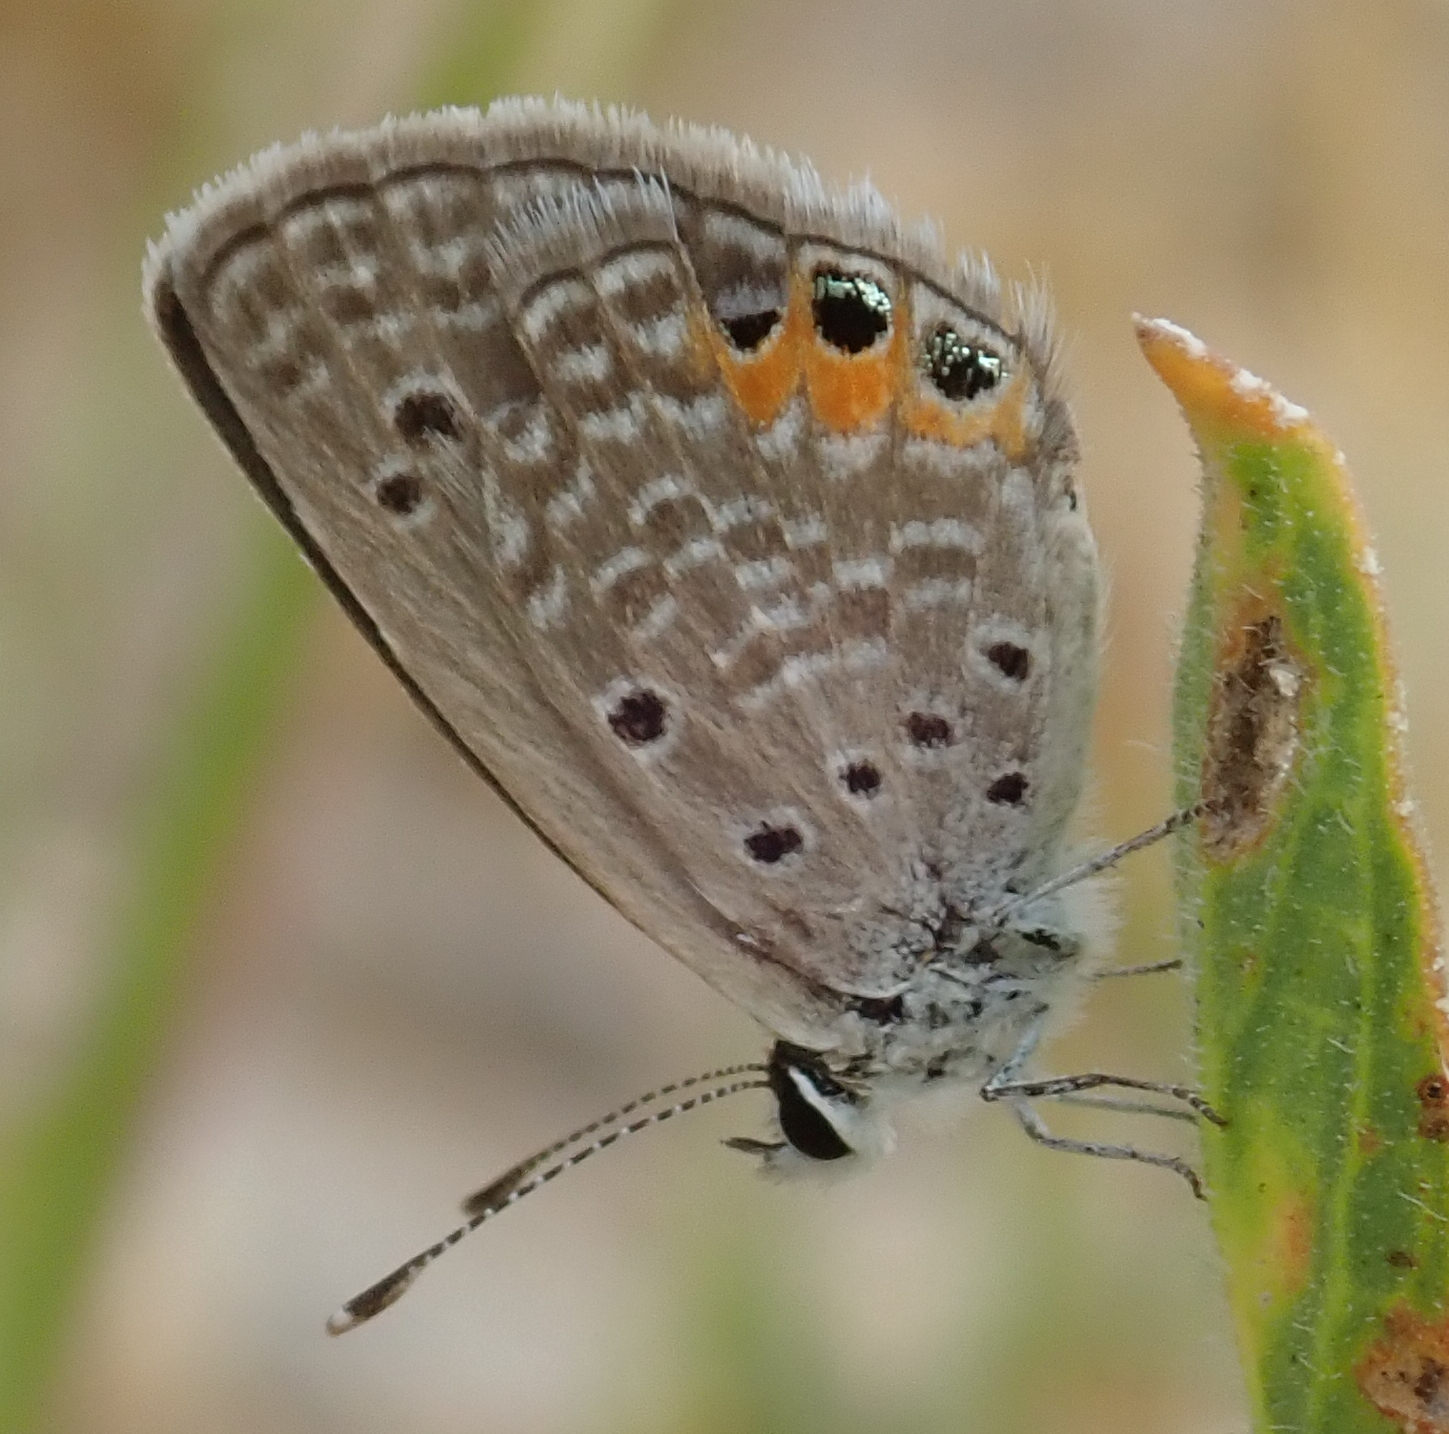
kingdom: Animalia
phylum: Arthropoda
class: Insecta
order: Lepidoptera
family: Lycaenidae
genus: Freyeria
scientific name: Freyeria trochylus
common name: Grass jewel
